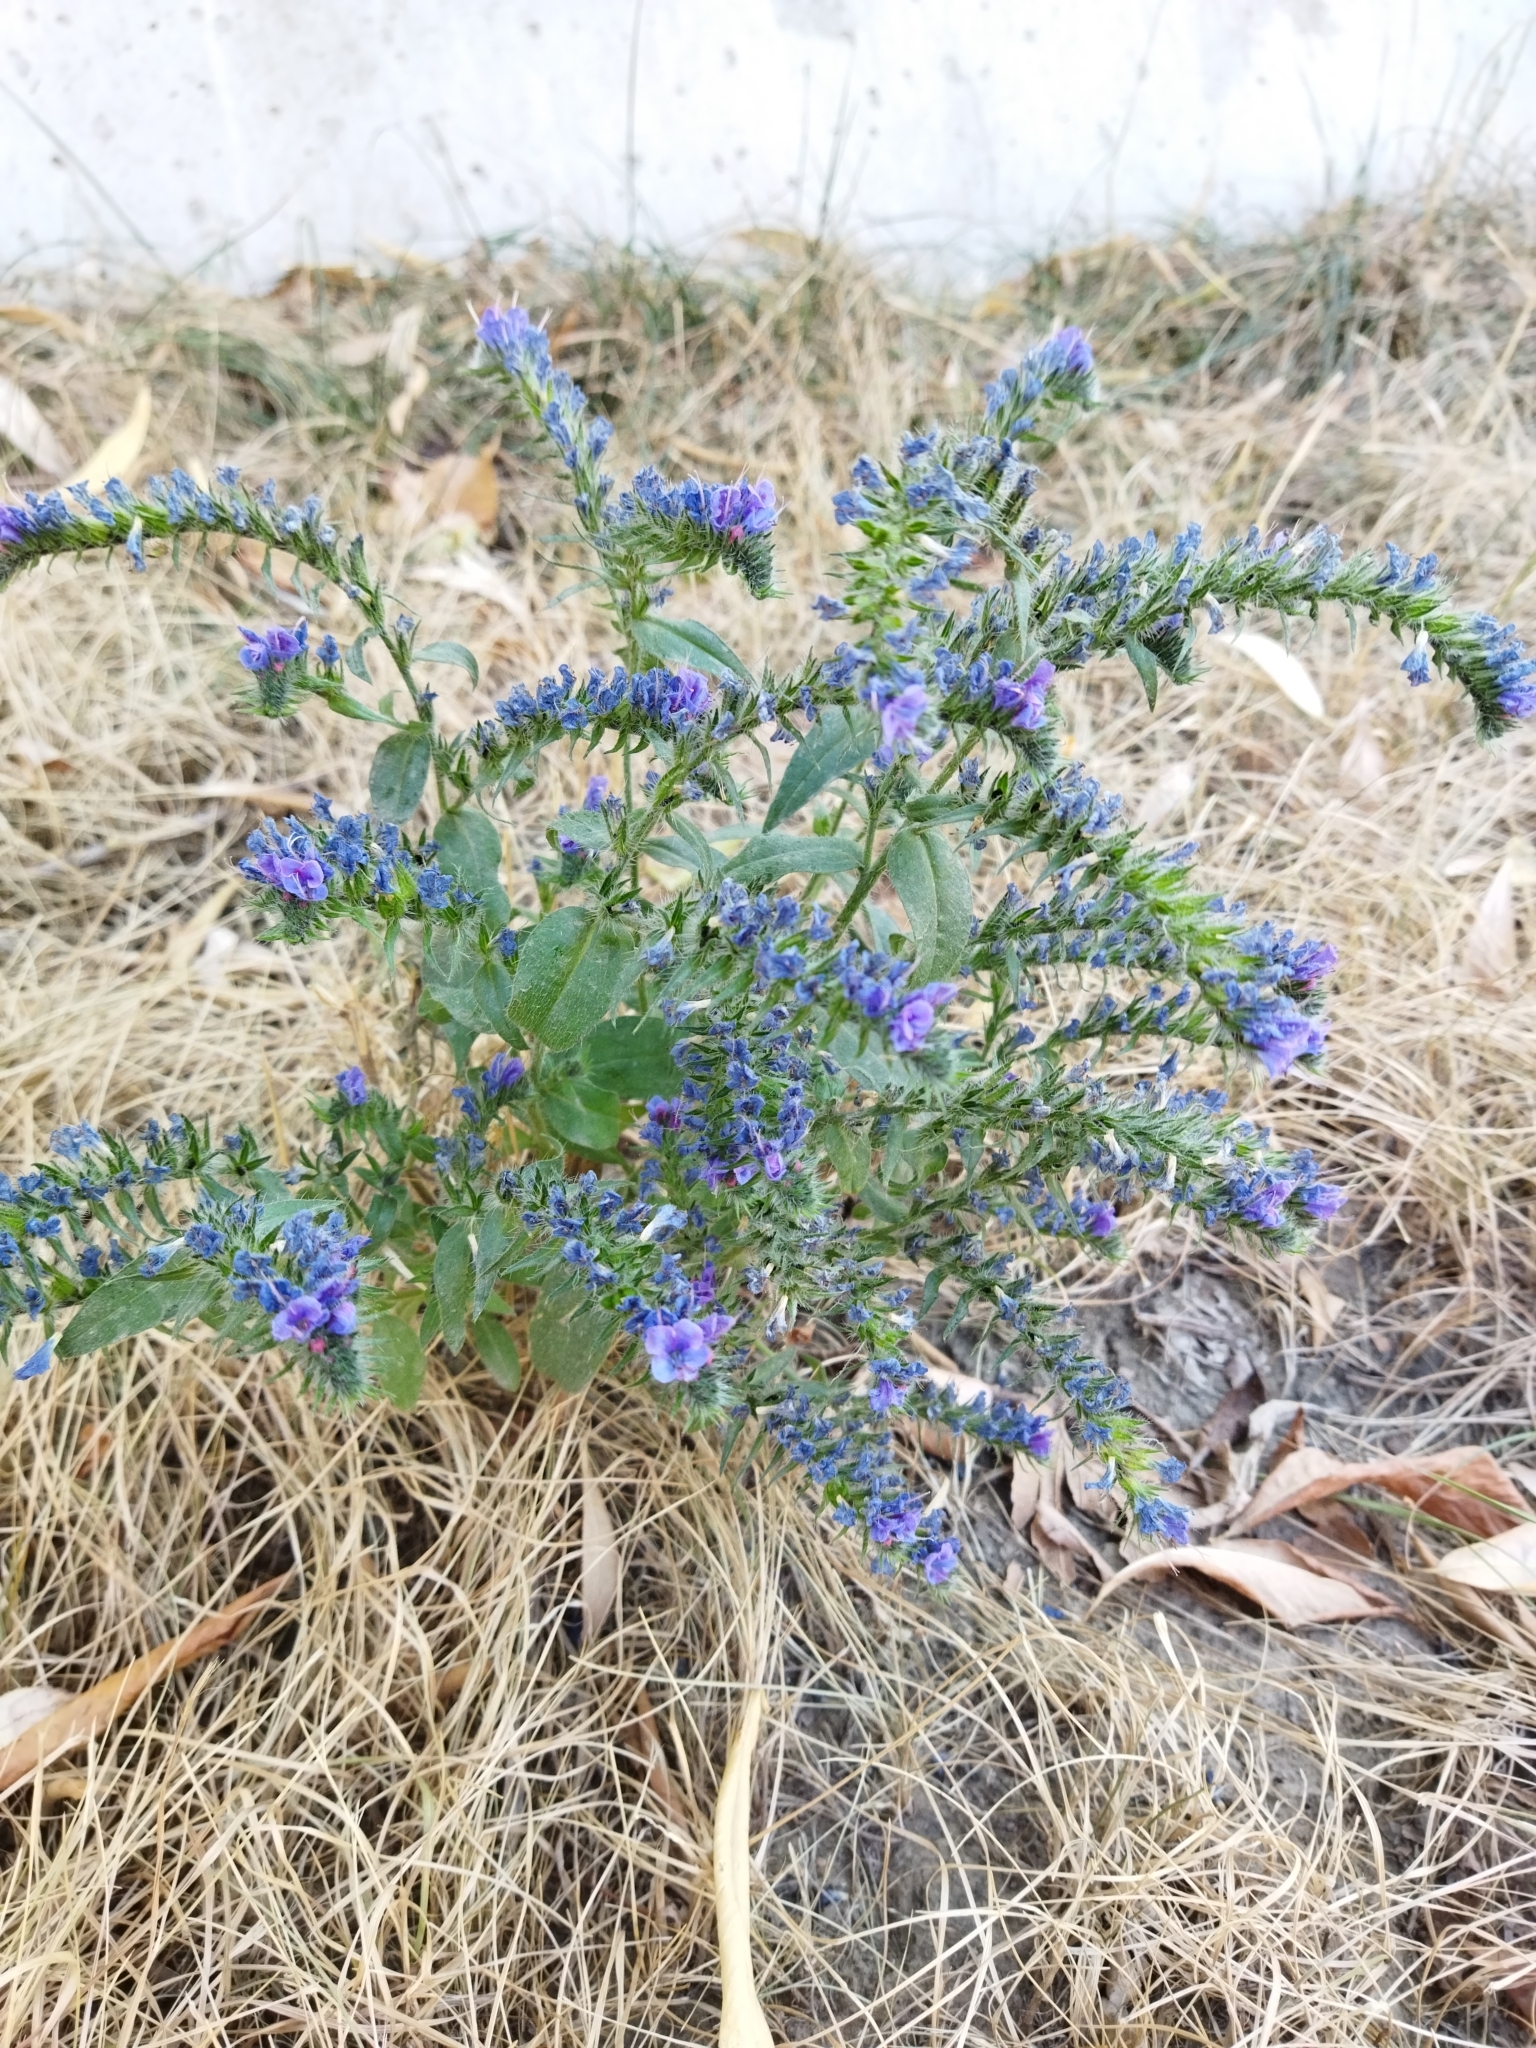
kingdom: Plantae
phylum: Tracheophyta
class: Magnoliopsida
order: Boraginales
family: Boraginaceae
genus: Echium
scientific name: Echium vulgare
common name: Common viper's bugloss
